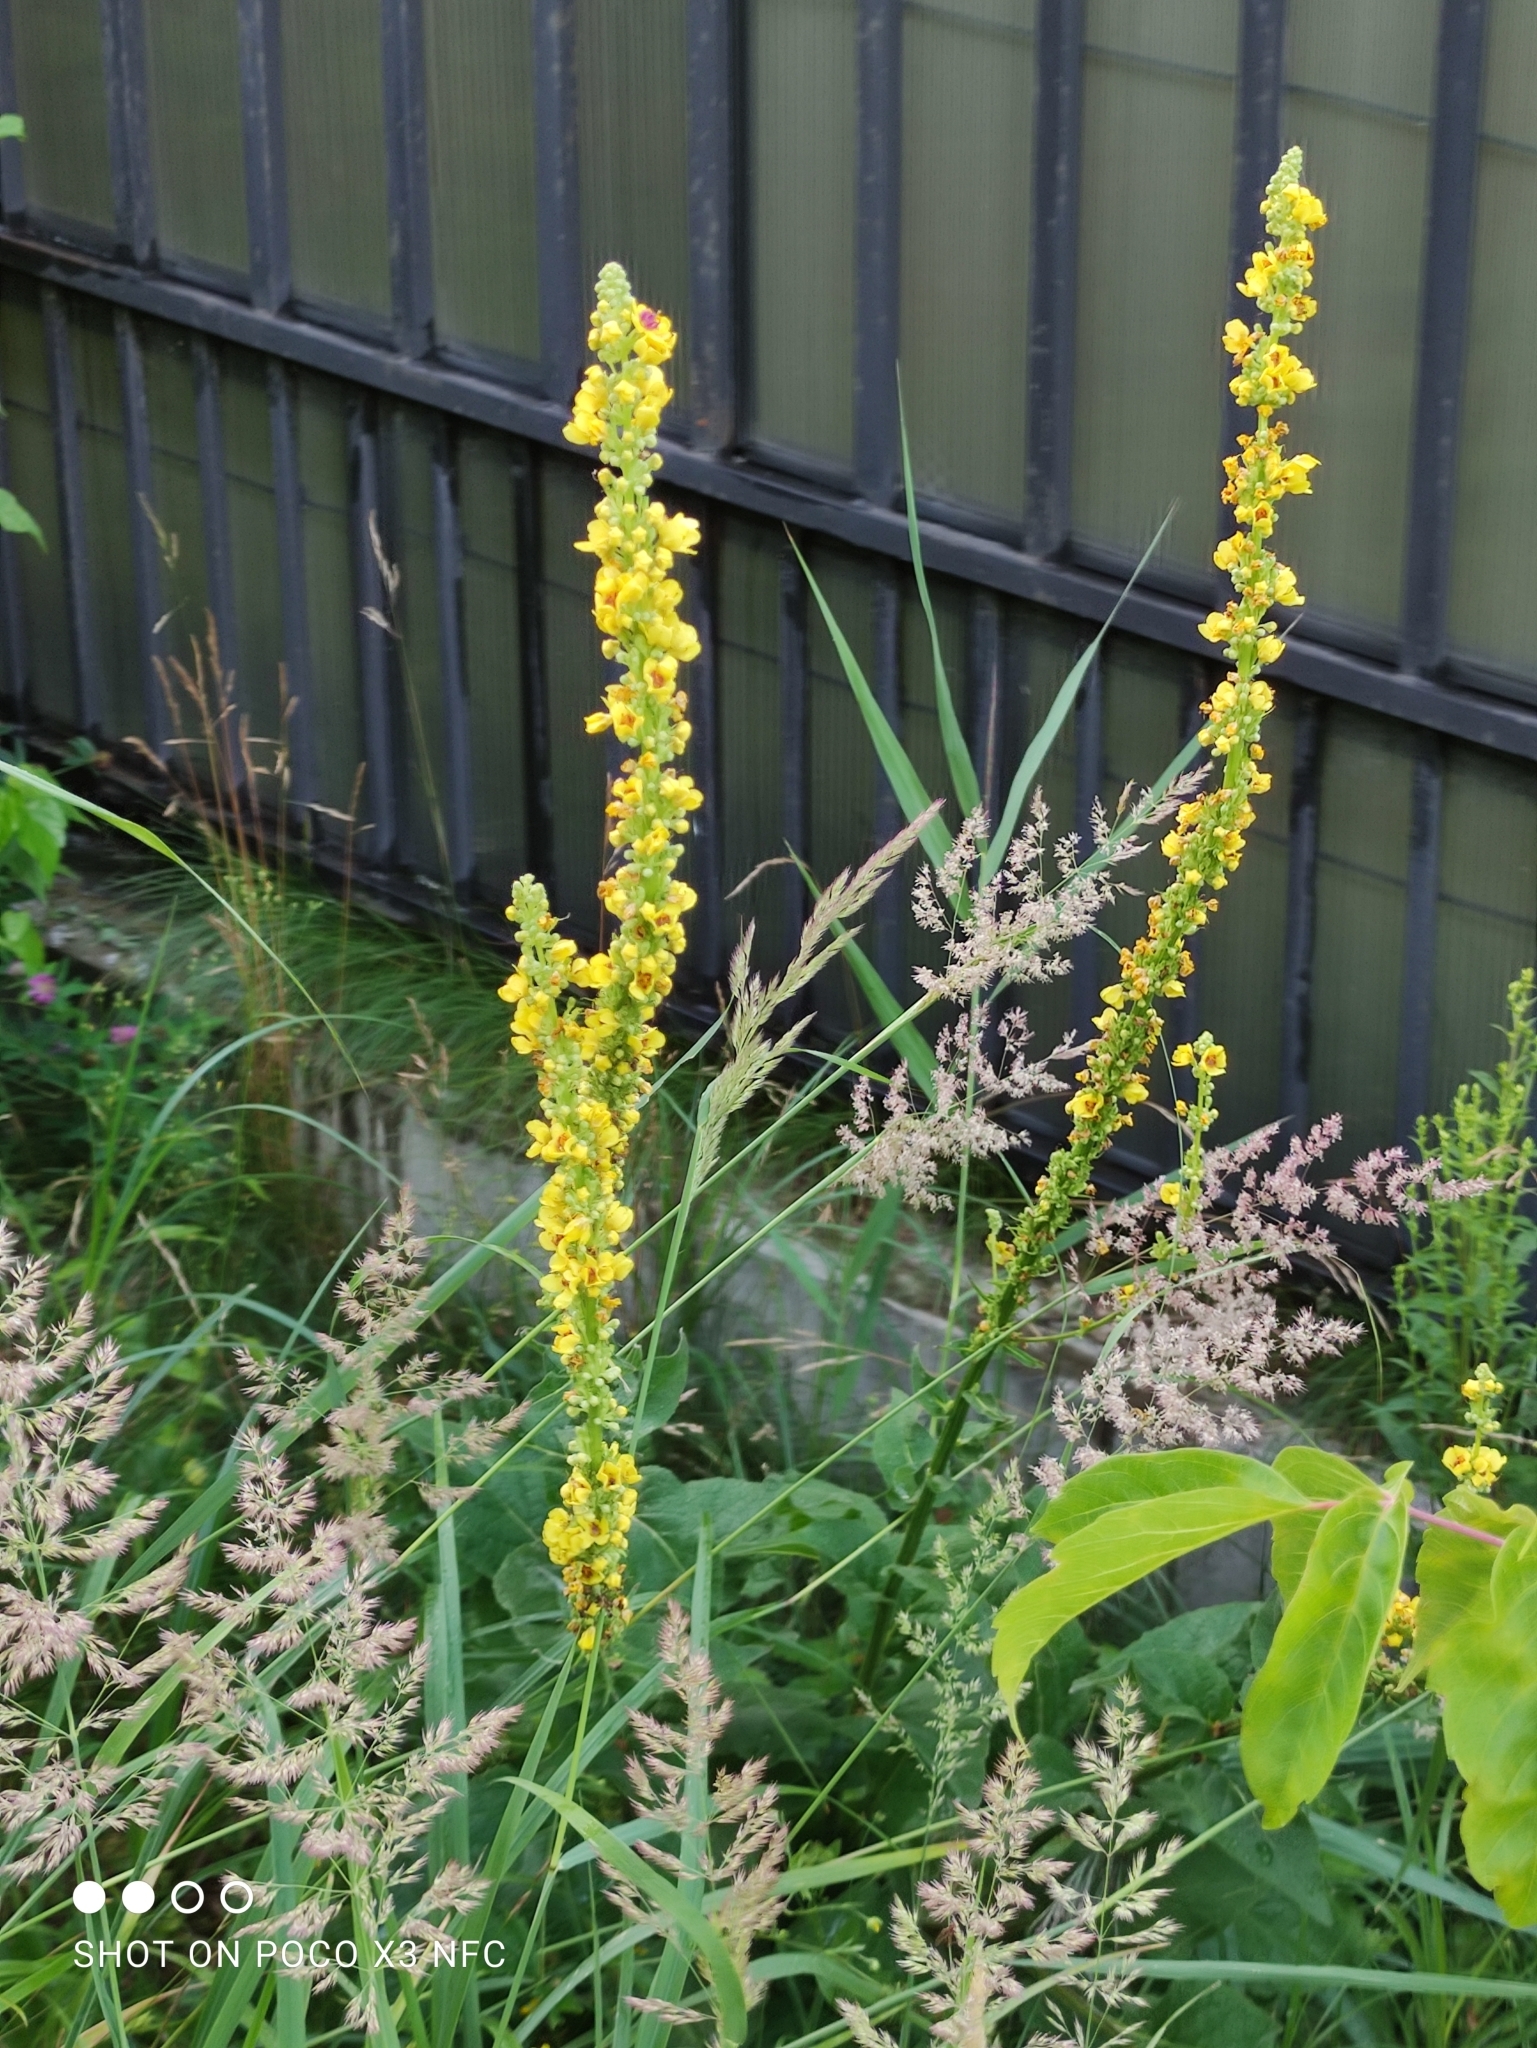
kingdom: Plantae
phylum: Tracheophyta
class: Magnoliopsida
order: Lamiales
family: Scrophulariaceae
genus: Verbascum
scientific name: Verbascum nigrum
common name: Dark mullein
